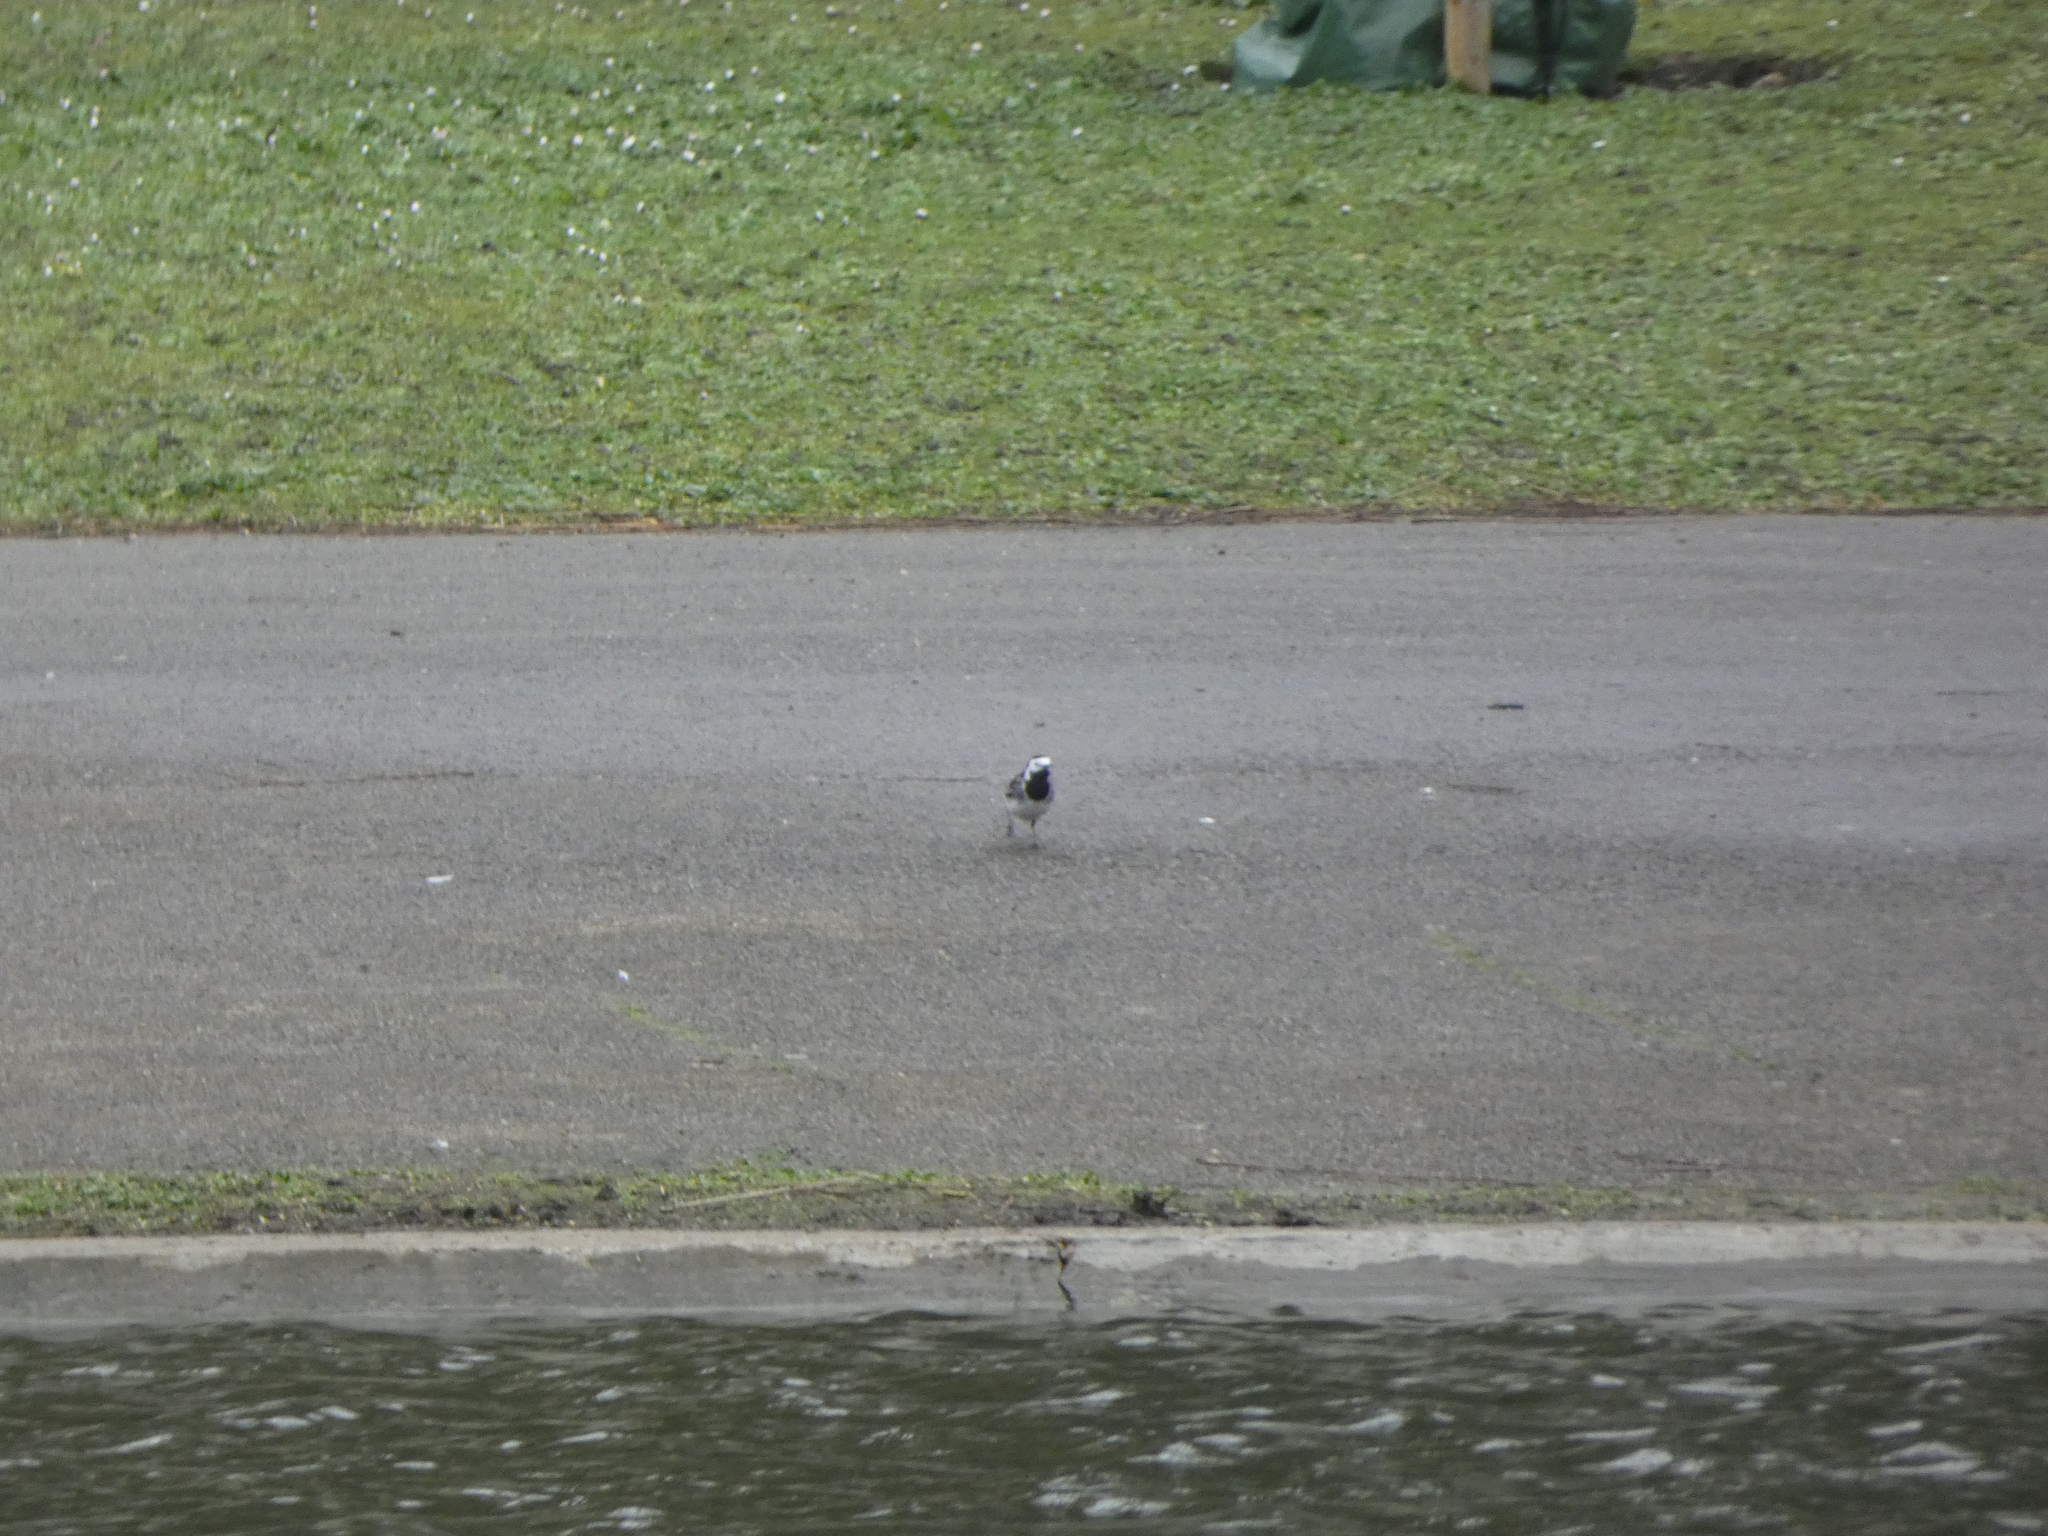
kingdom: Animalia
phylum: Chordata
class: Aves
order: Passeriformes
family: Motacillidae
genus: Motacilla
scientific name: Motacilla alba
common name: White wagtail
